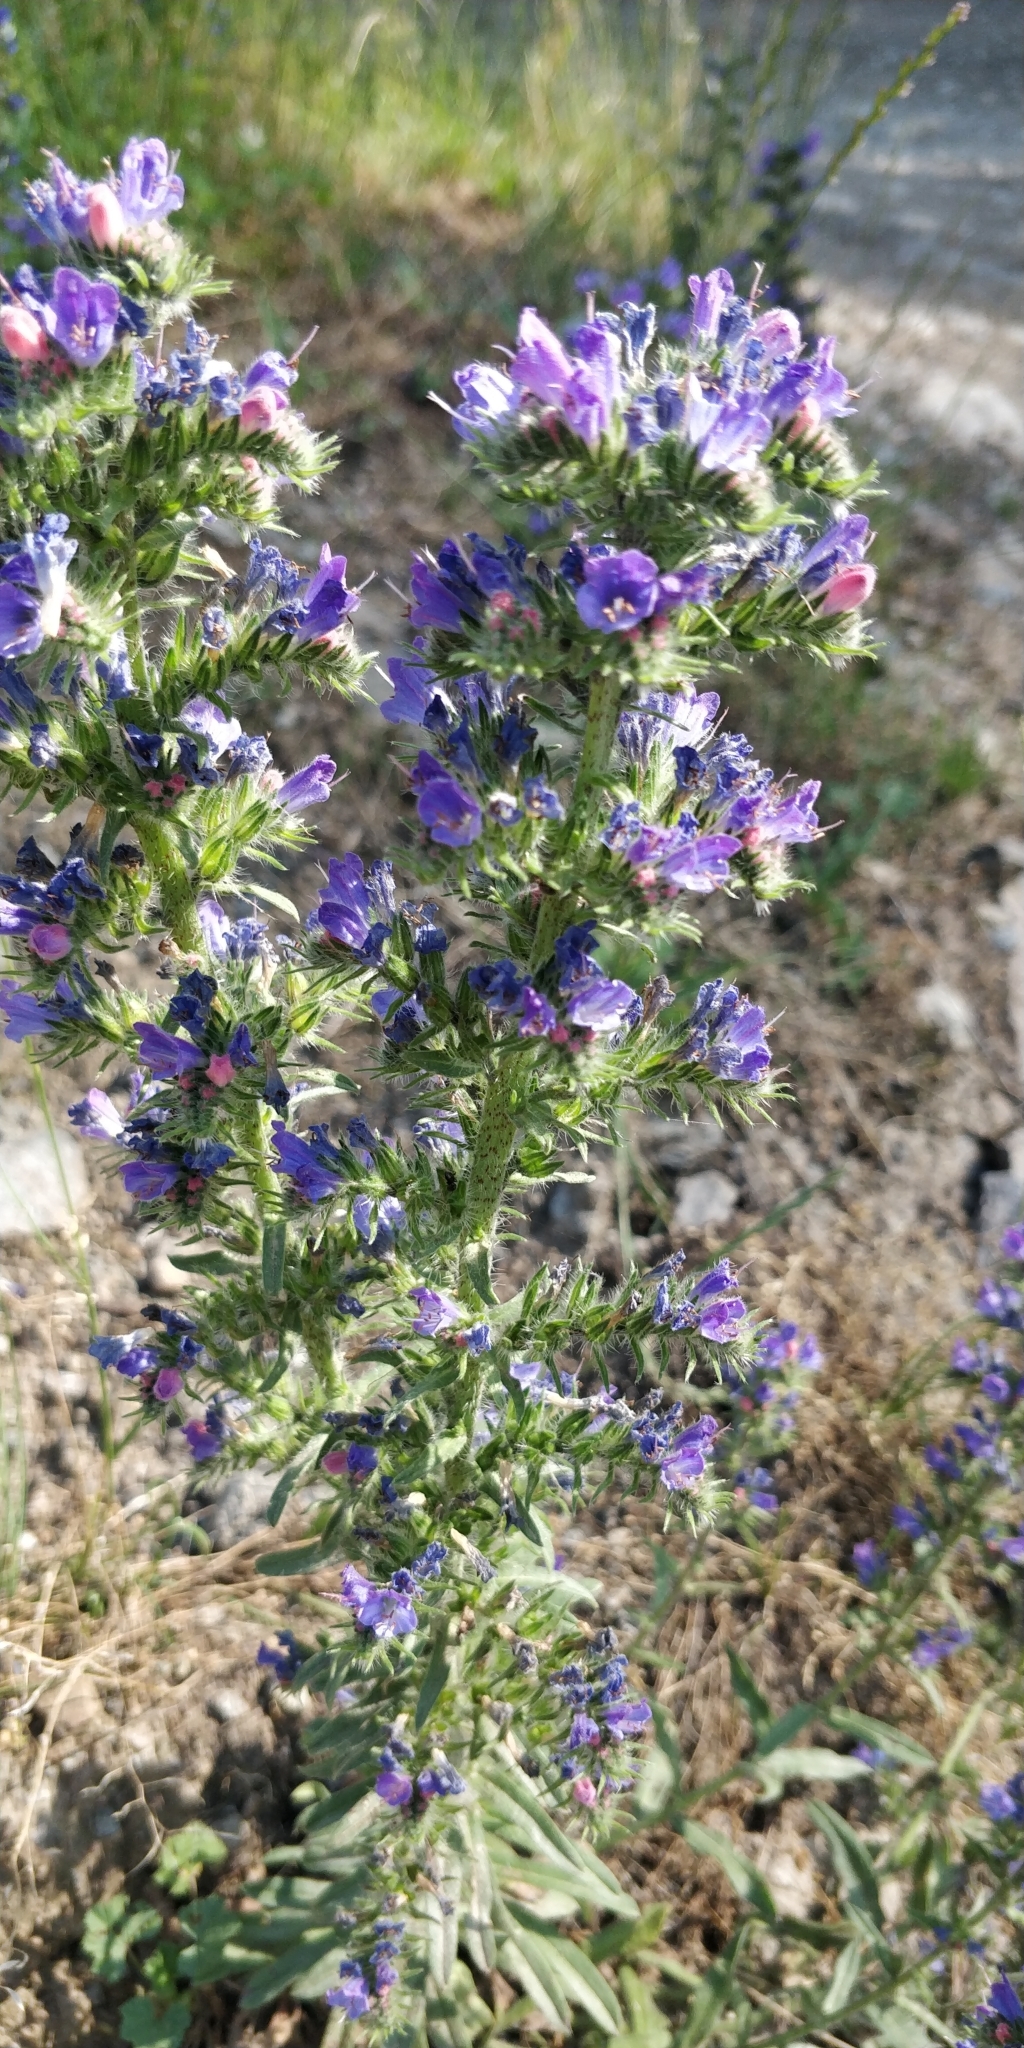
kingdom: Plantae
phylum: Tracheophyta
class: Magnoliopsida
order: Boraginales
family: Boraginaceae
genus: Echium
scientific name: Echium vulgare
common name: Common viper's bugloss
